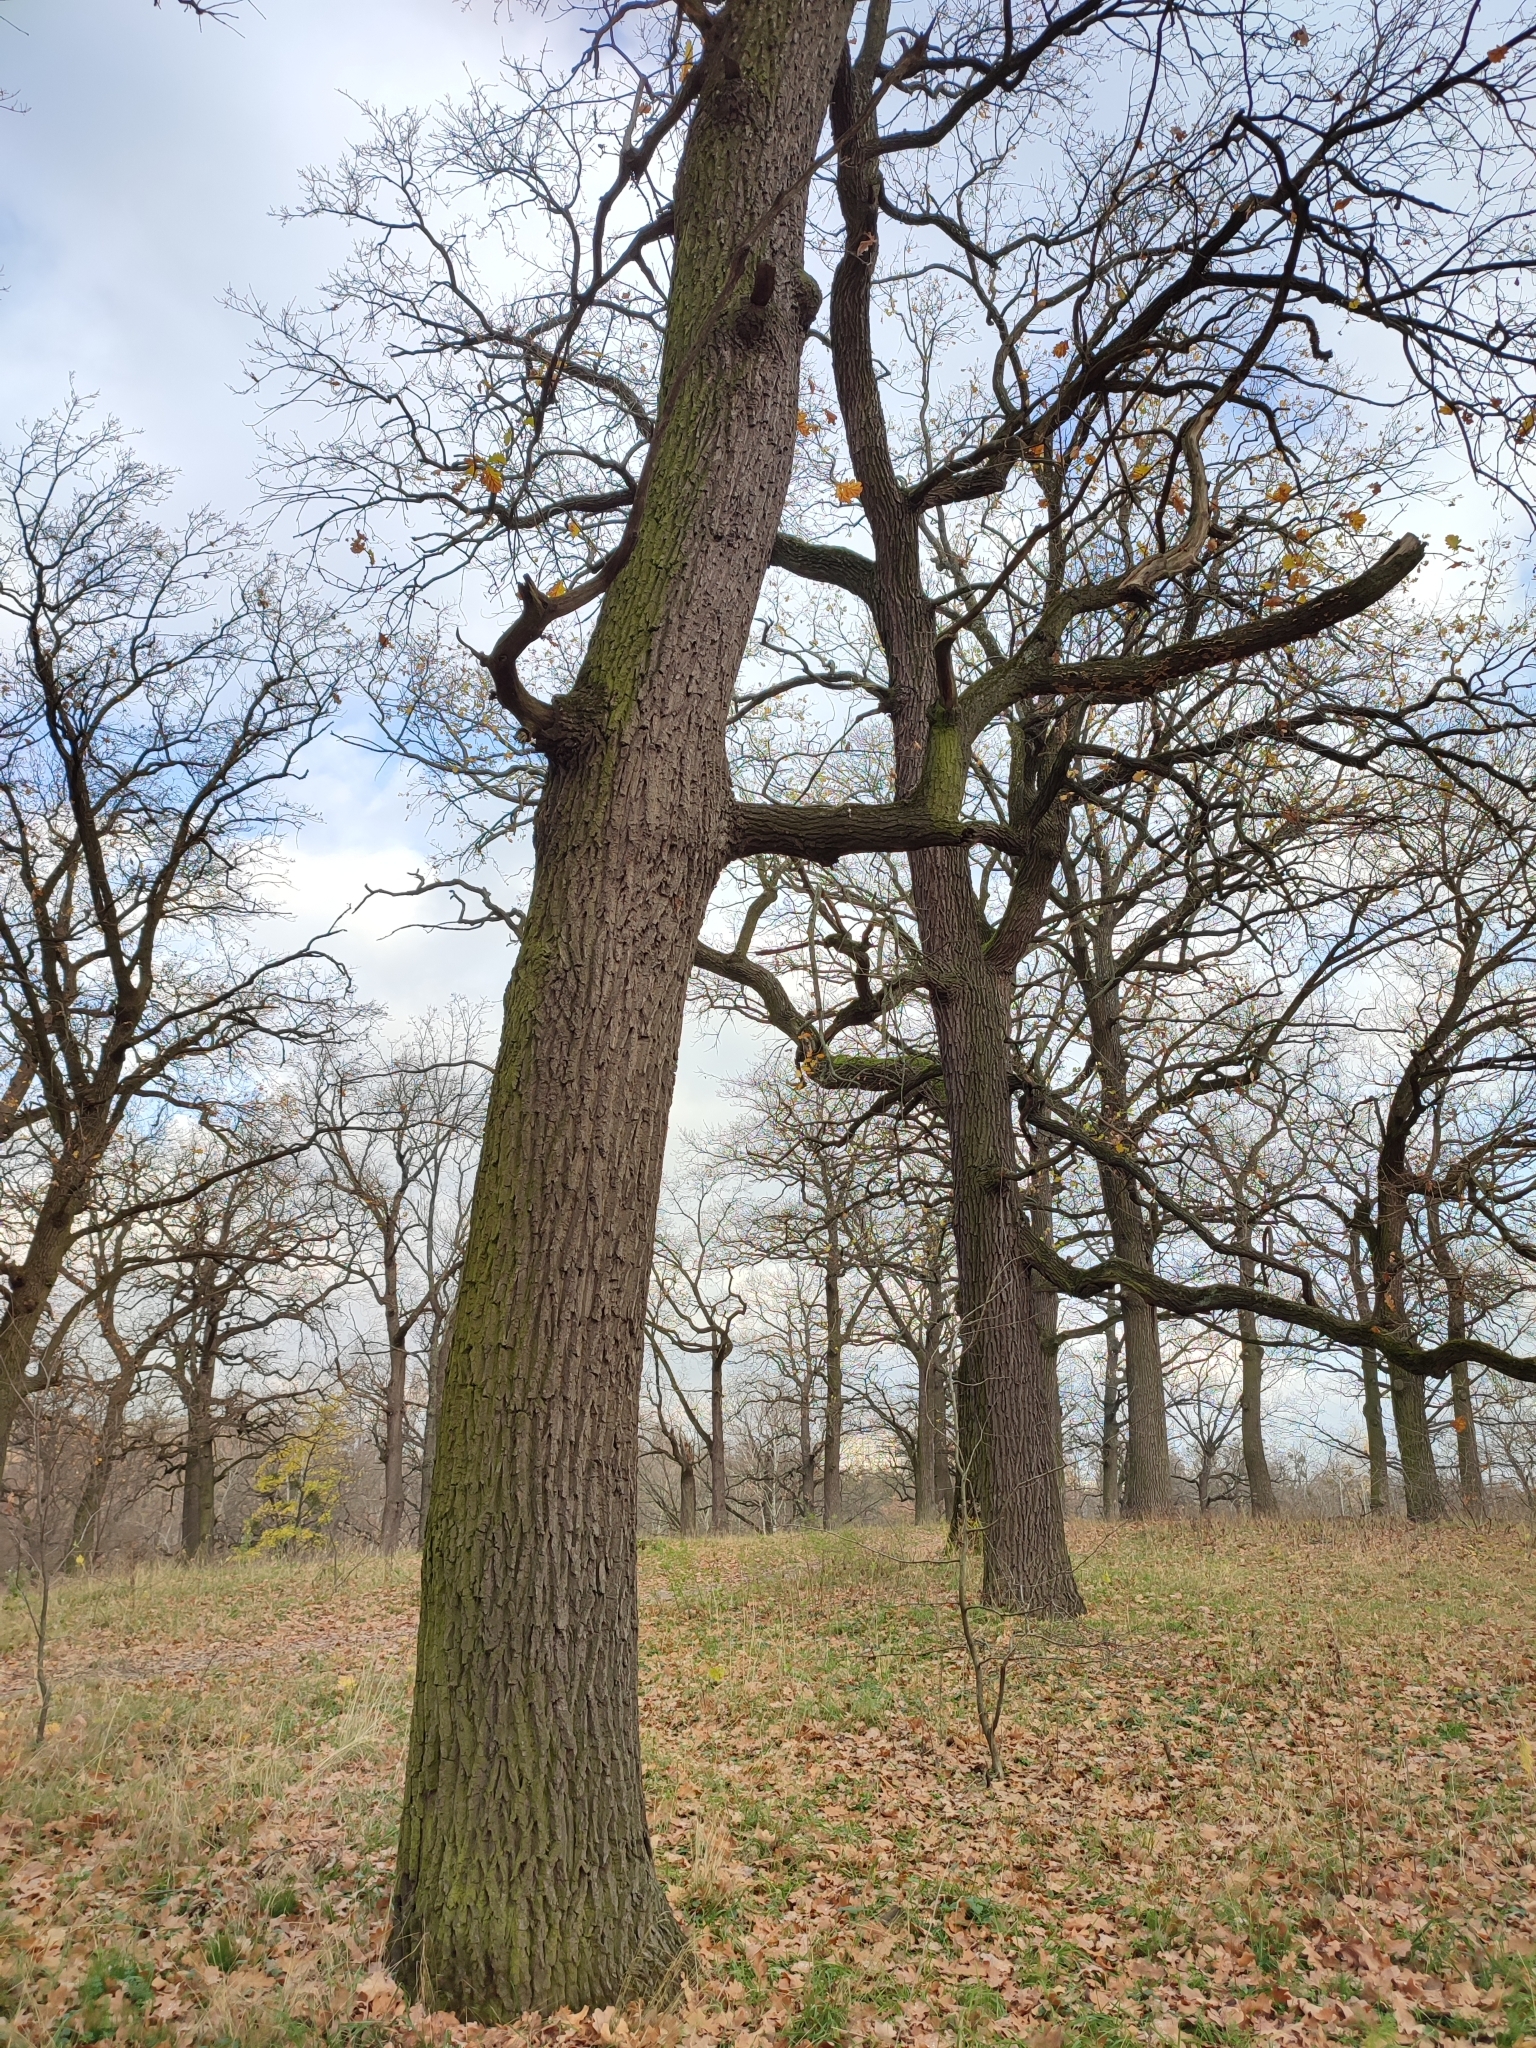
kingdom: Plantae
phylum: Tracheophyta
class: Magnoliopsida
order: Fagales
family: Fagaceae
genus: Quercus
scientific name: Quercus robur
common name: Pedunculate oak
